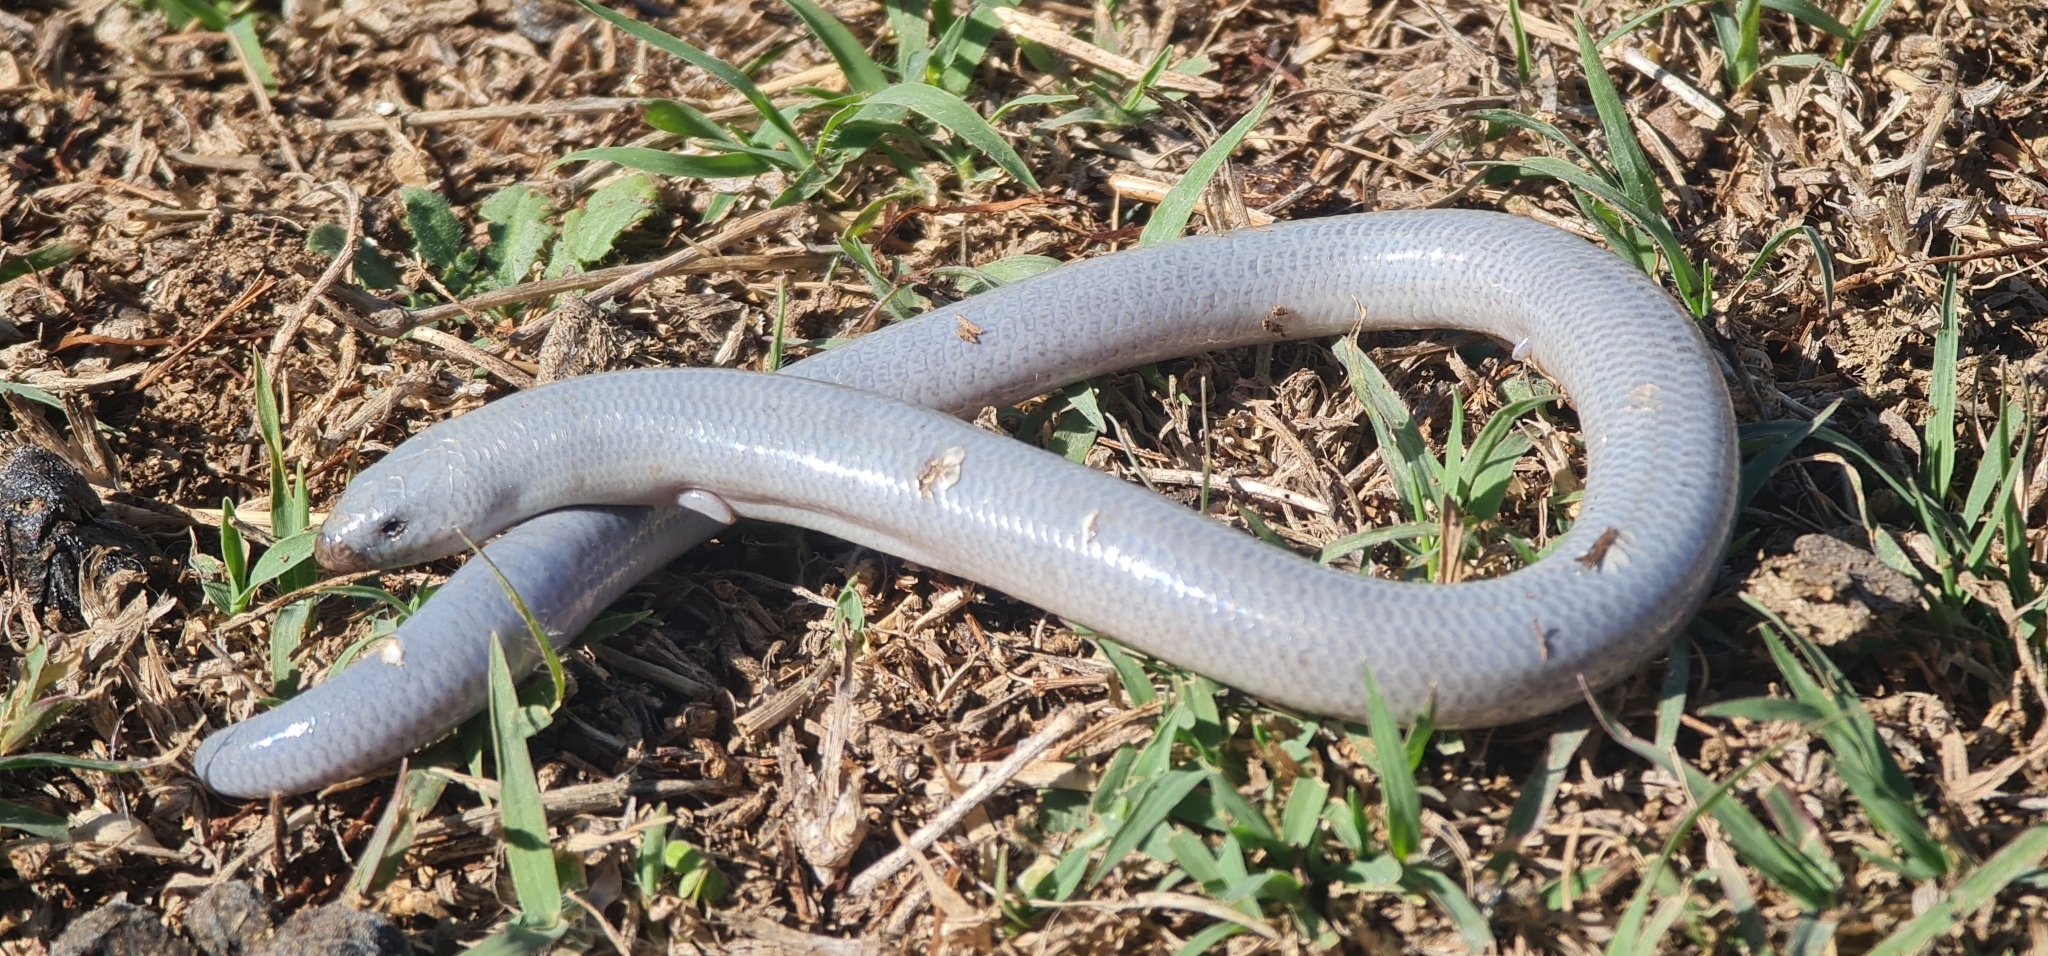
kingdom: Animalia
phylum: Chordata
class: Squamata
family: Scincidae
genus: Anomalopus
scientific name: Anomalopus leuckartii
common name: Two-clawed worm-skink
